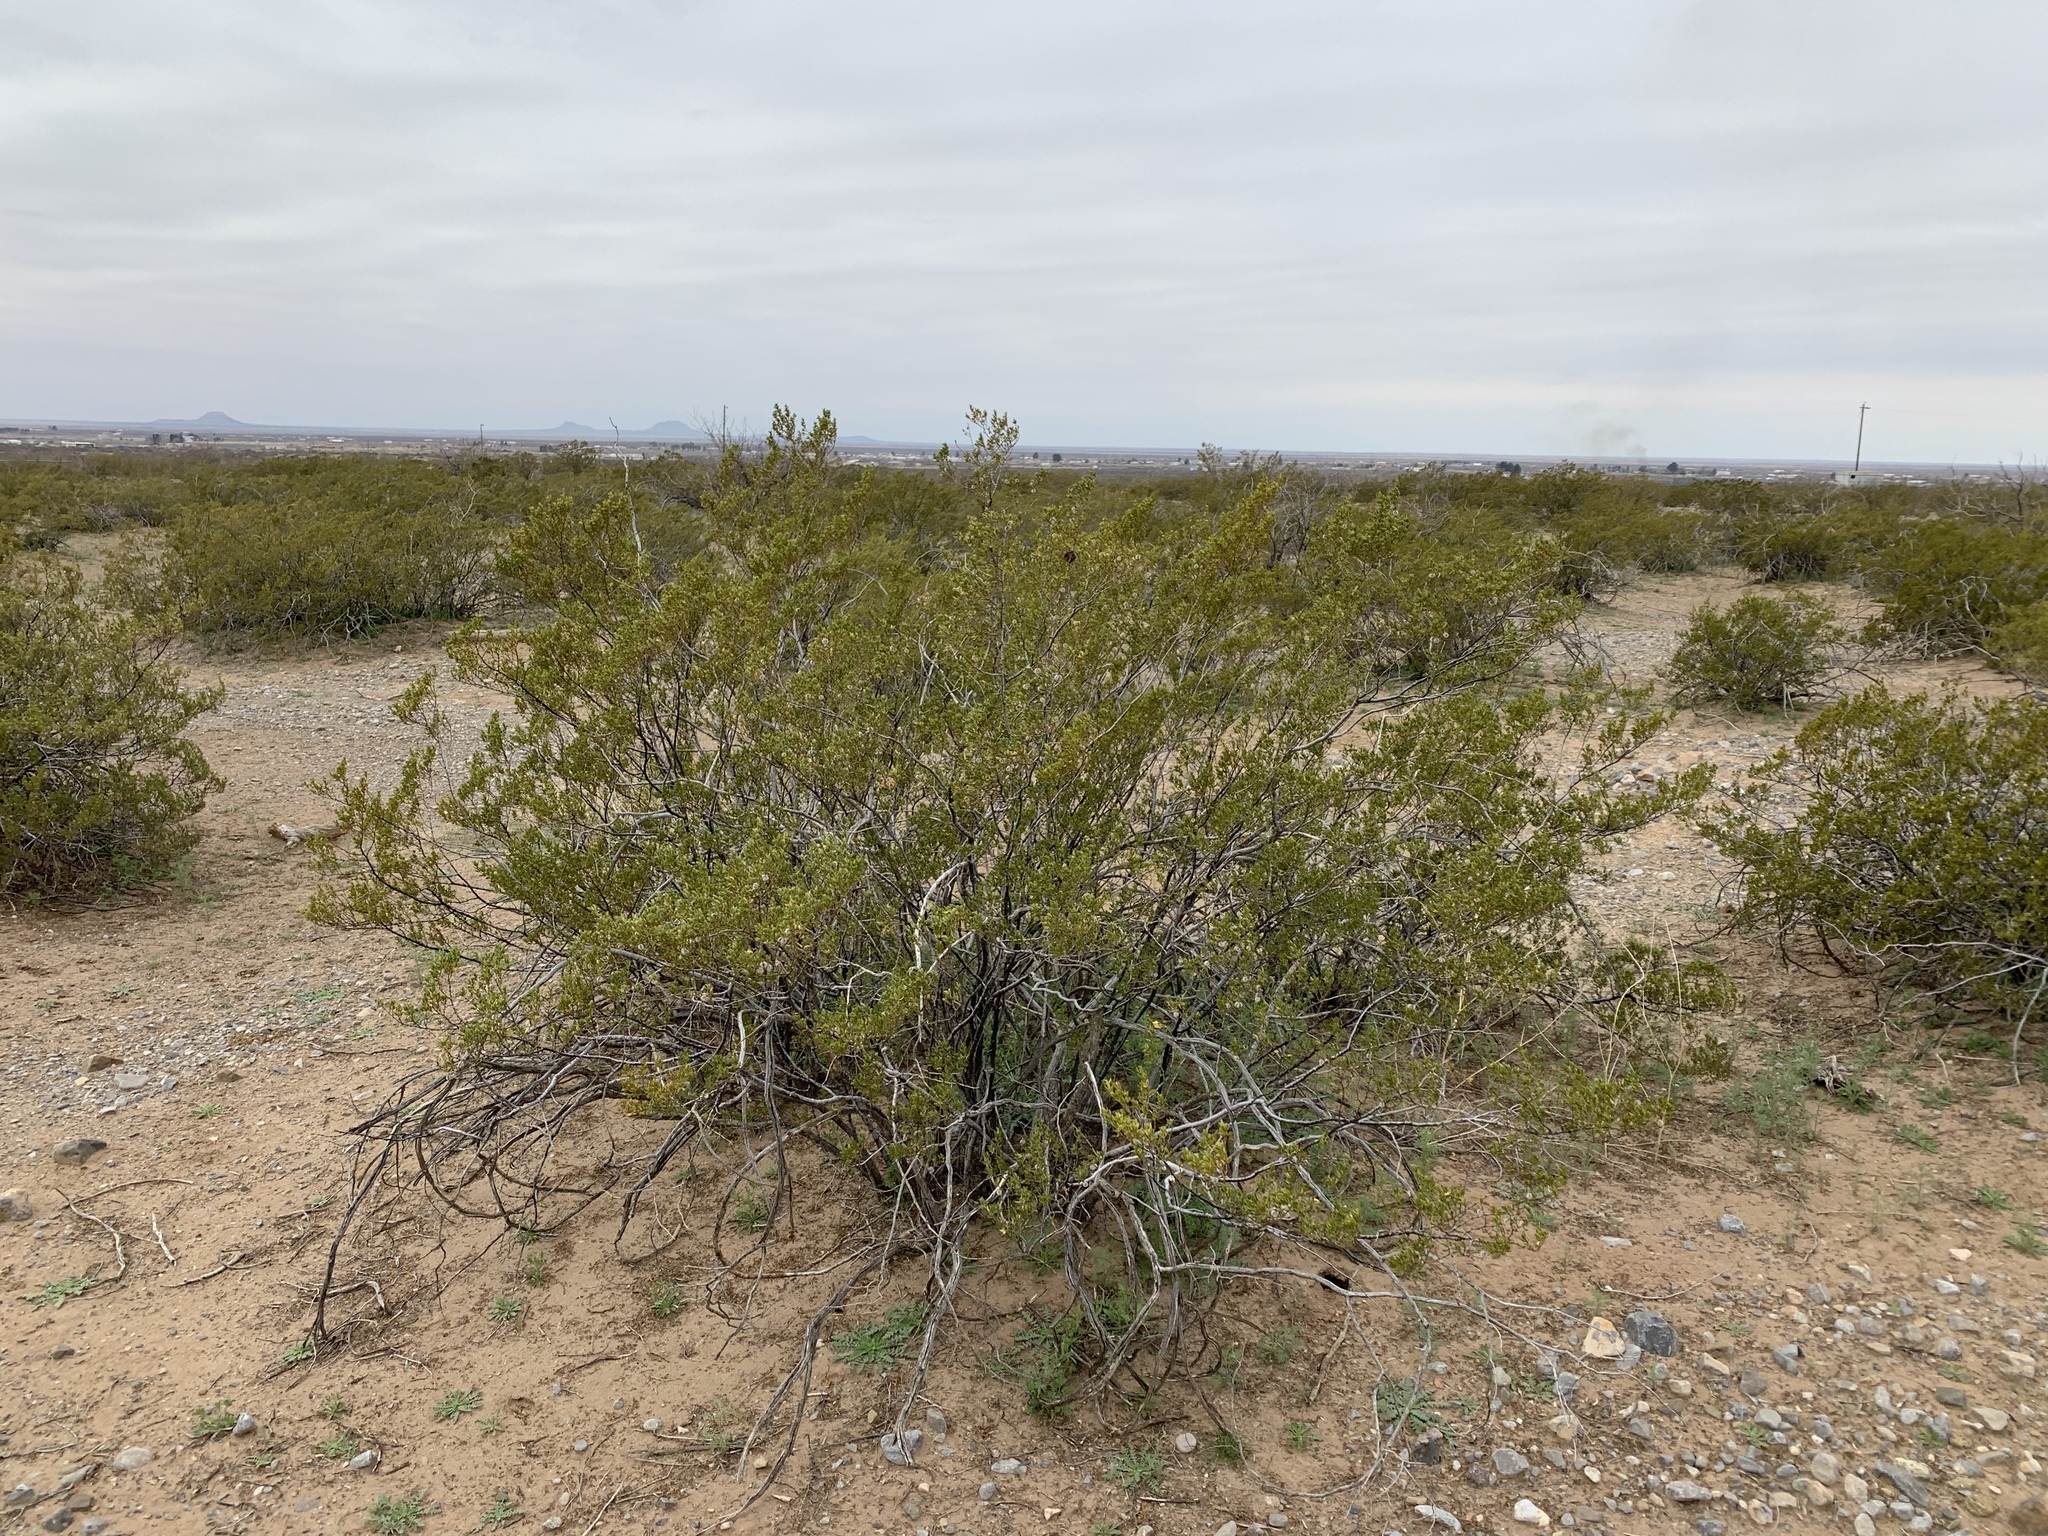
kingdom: Plantae
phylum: Tracheophyta
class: Magnoliopsida
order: Zygophyllales
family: Zygophyllaceae
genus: Larrea
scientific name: Larrea tridentata
